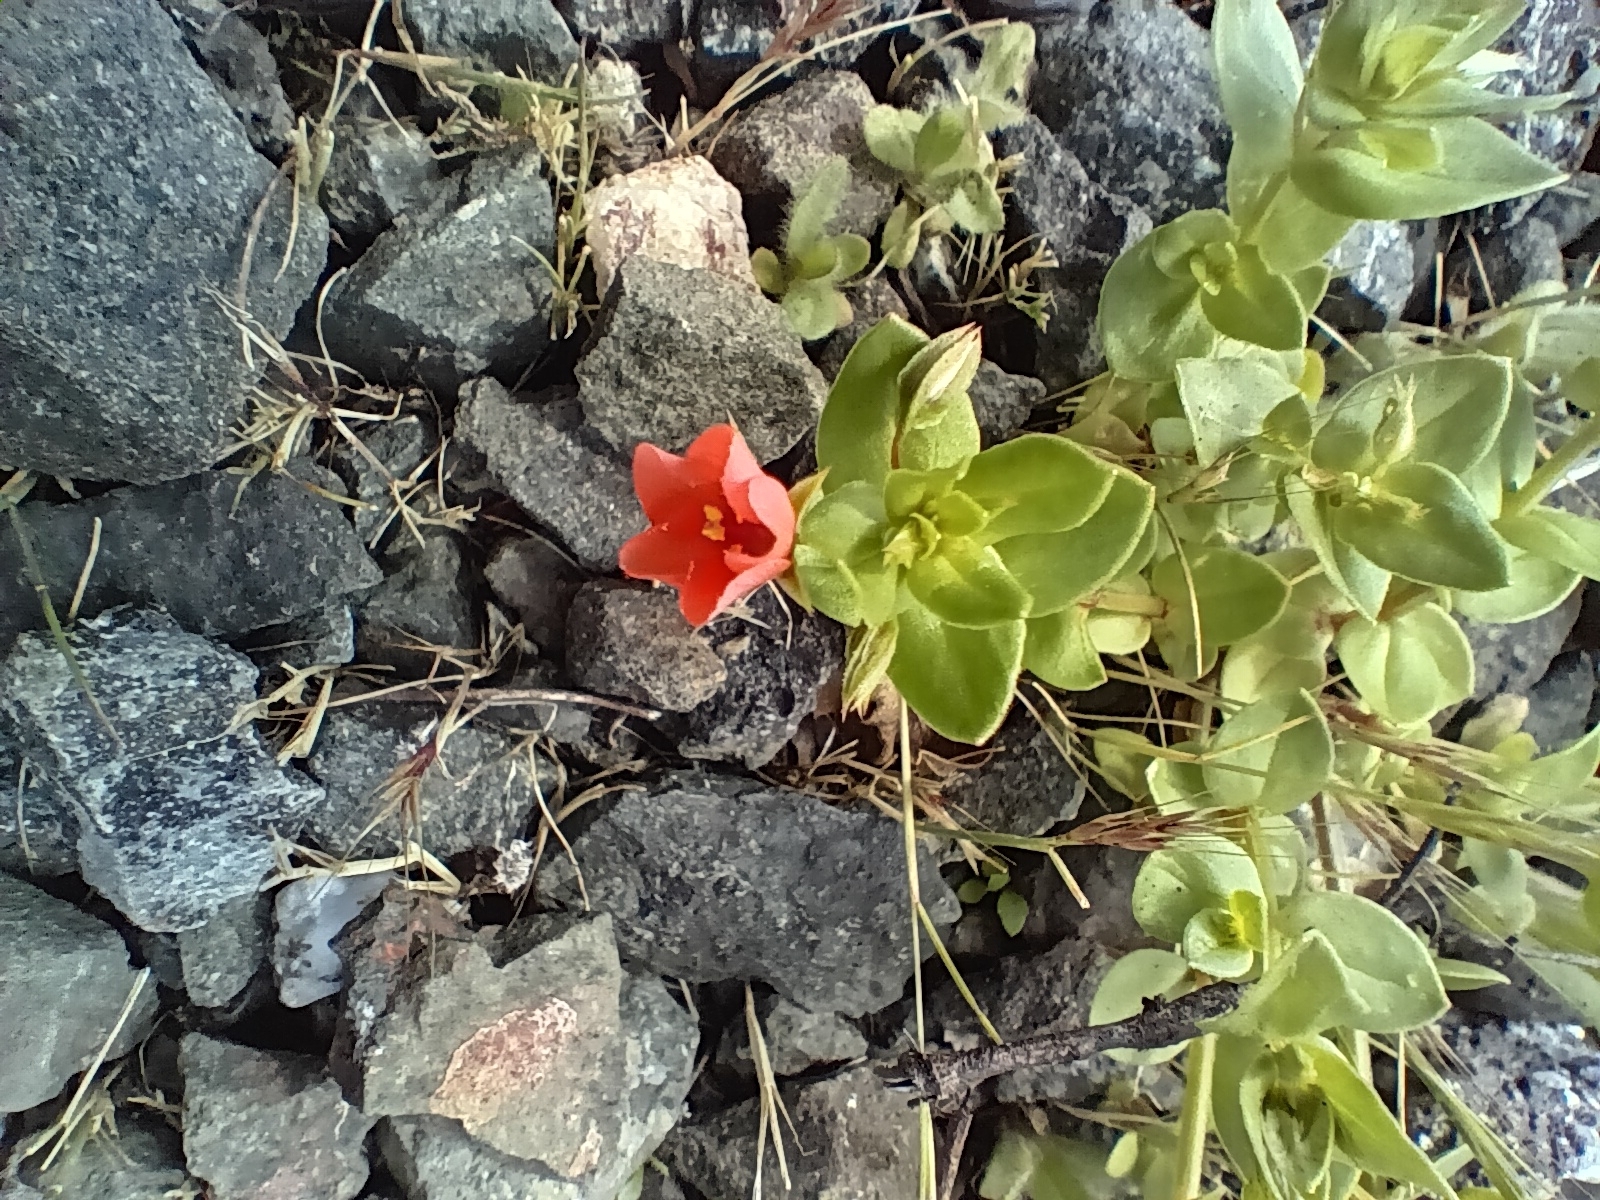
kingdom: Plantae
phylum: Tracheophyta
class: Magnoliopsida
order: Ericales
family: Primulaceae
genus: Lysimachia
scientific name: Lysimachia arvensis
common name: Scarlet pimpernel
